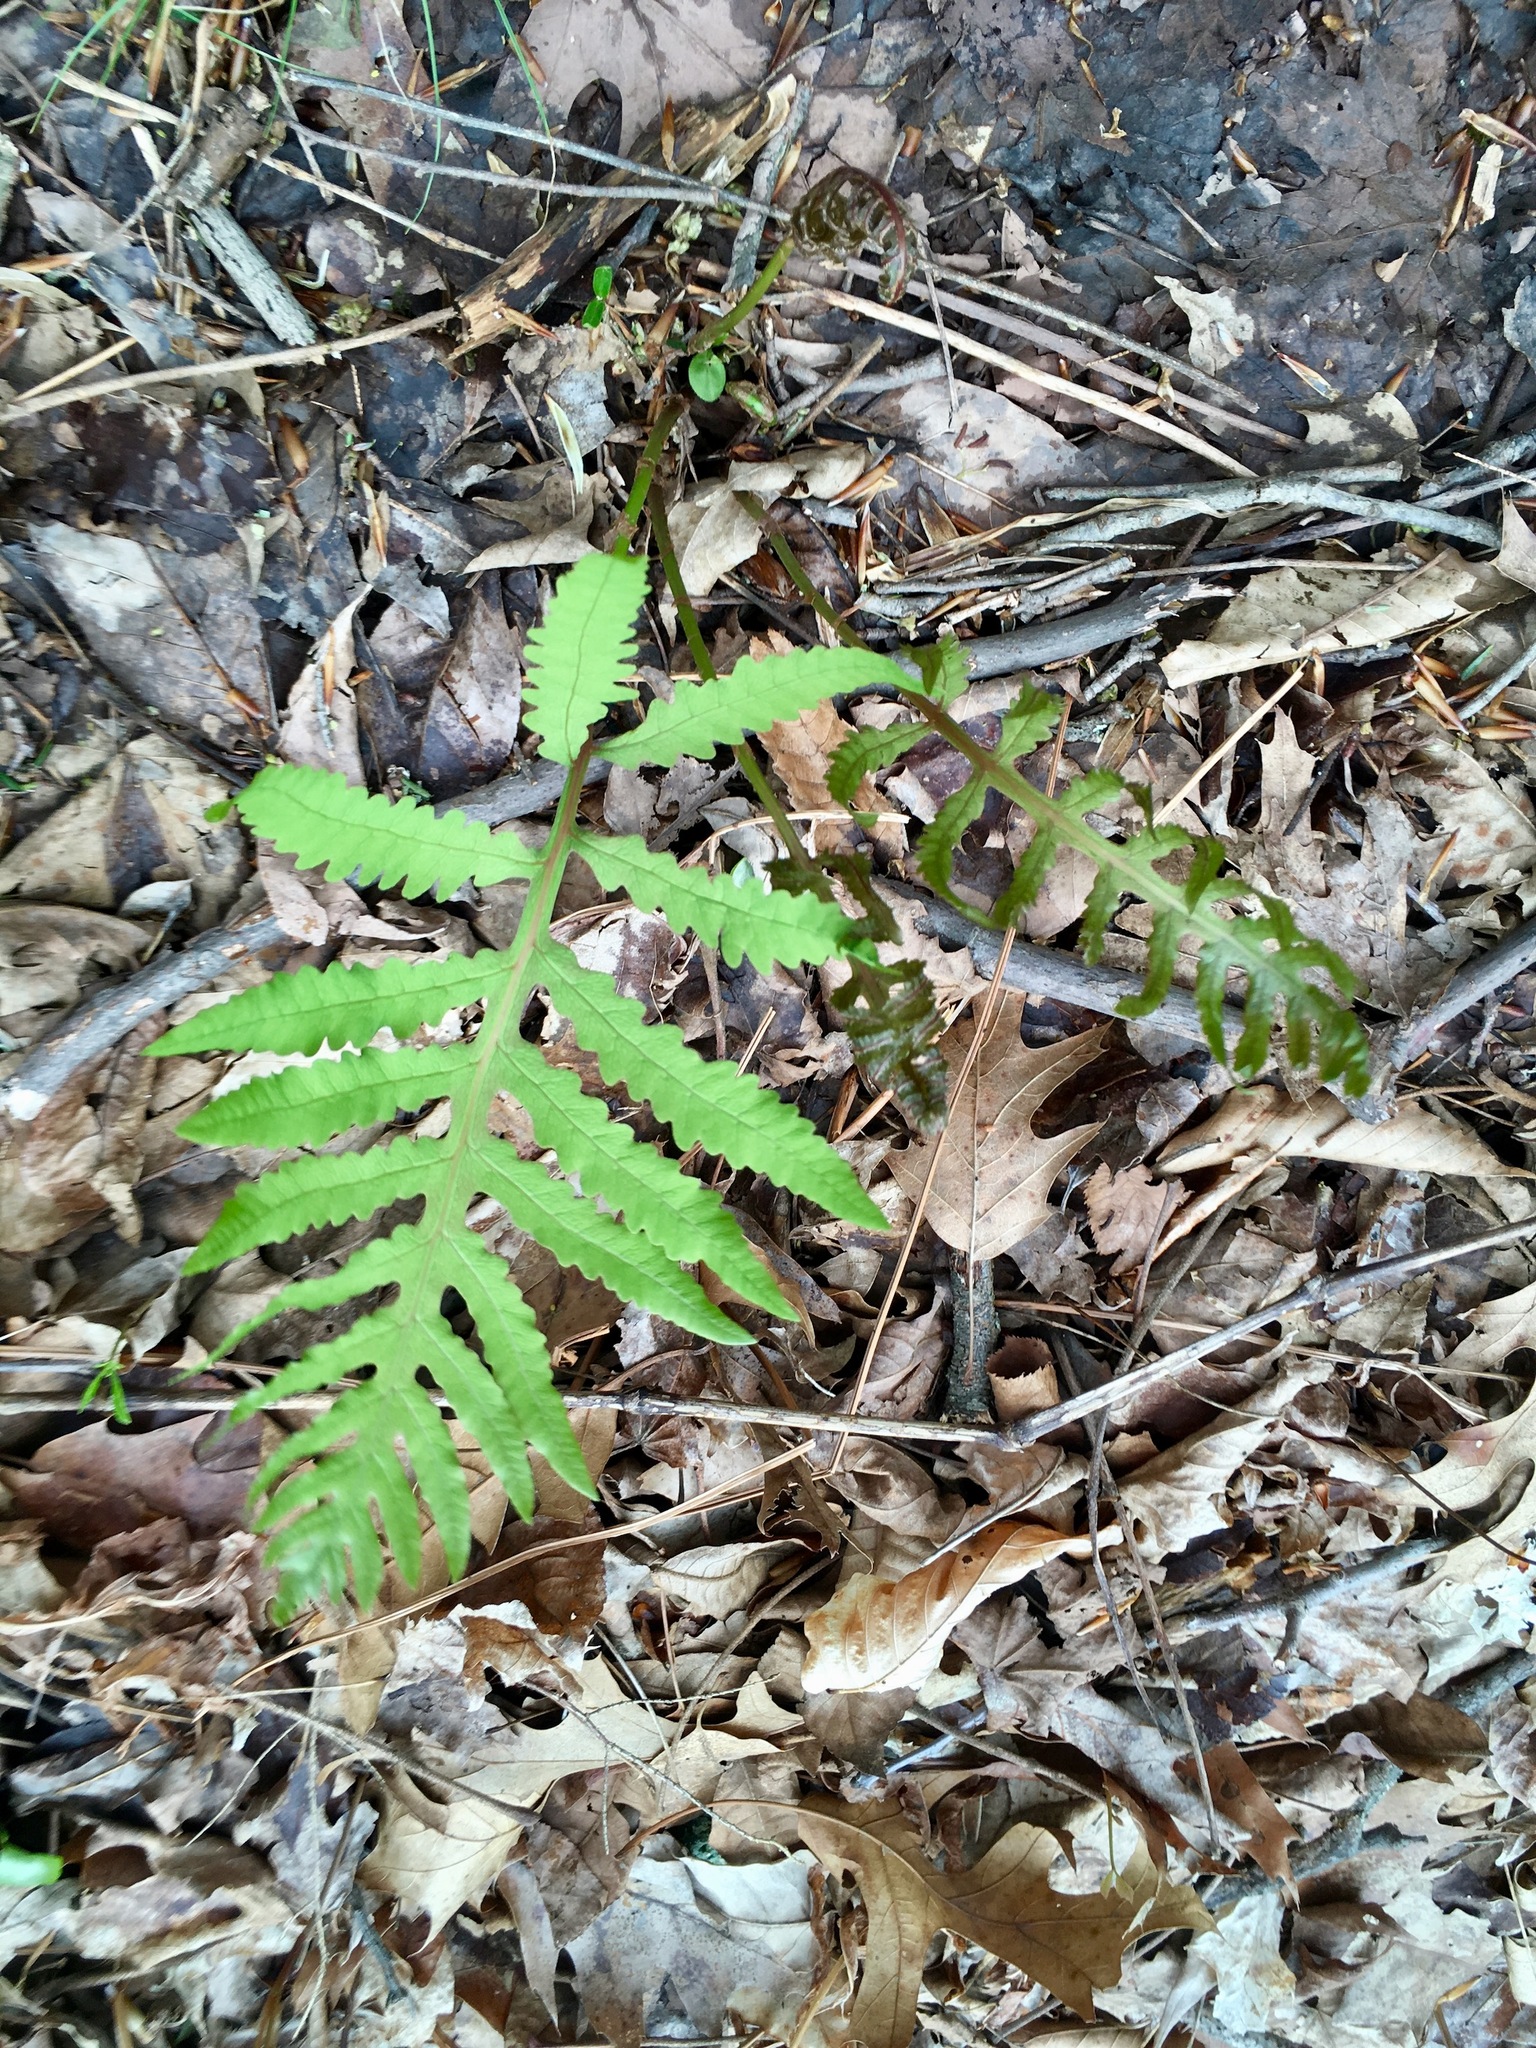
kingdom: Plantae
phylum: Tracheophyta
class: Polypodiopsida
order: Polypodiales
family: Onocleaceae
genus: Onoclea
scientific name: Onoclea sensibilis
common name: Sensitive fern
